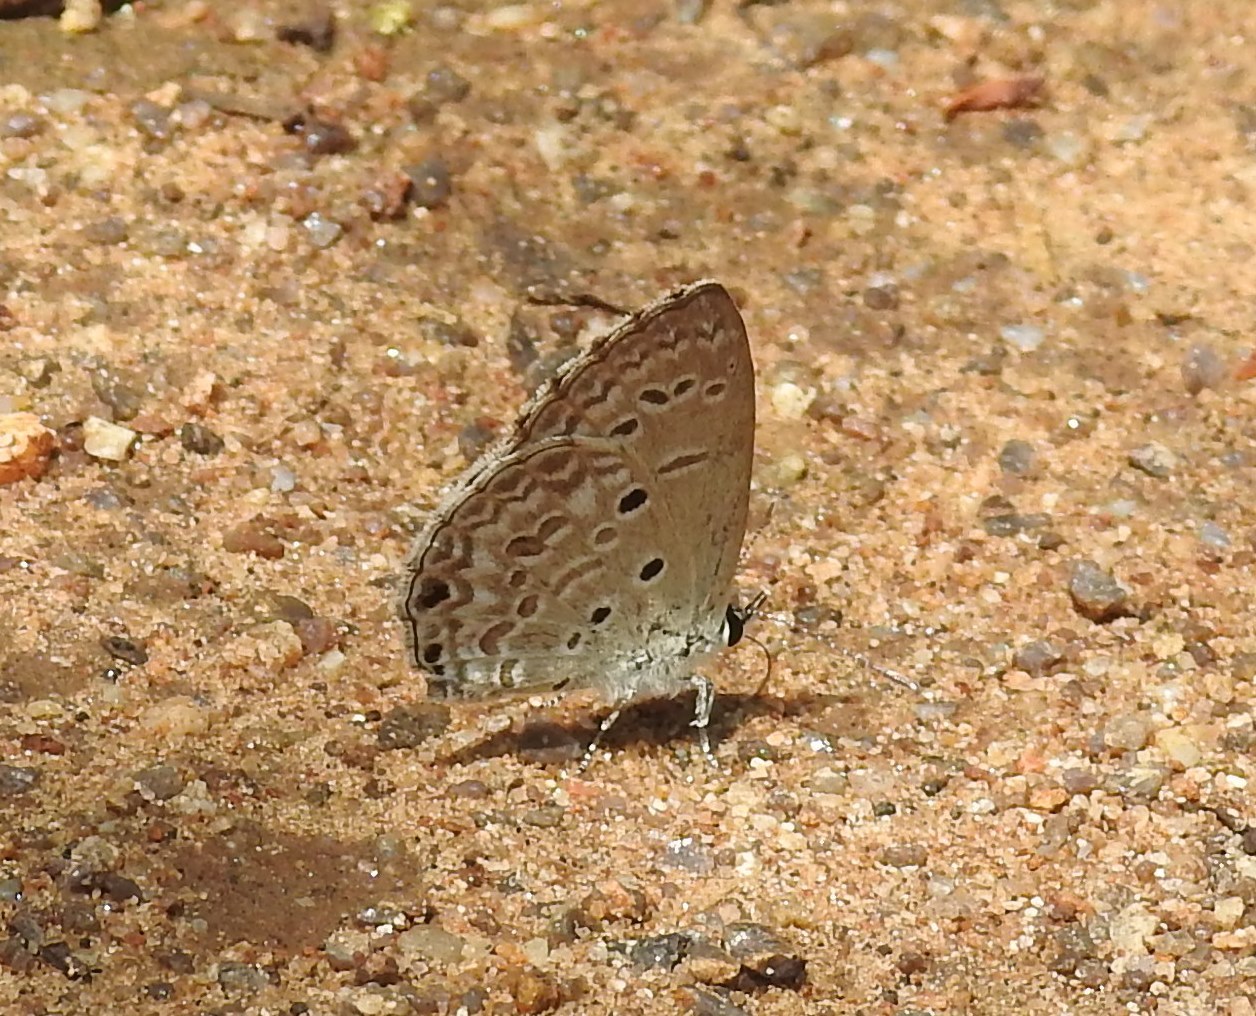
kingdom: Animalia
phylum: Arthropoda
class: Insecta
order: Lepidoptera
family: Lycaenidae
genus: Chilades
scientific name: Chilades laius
